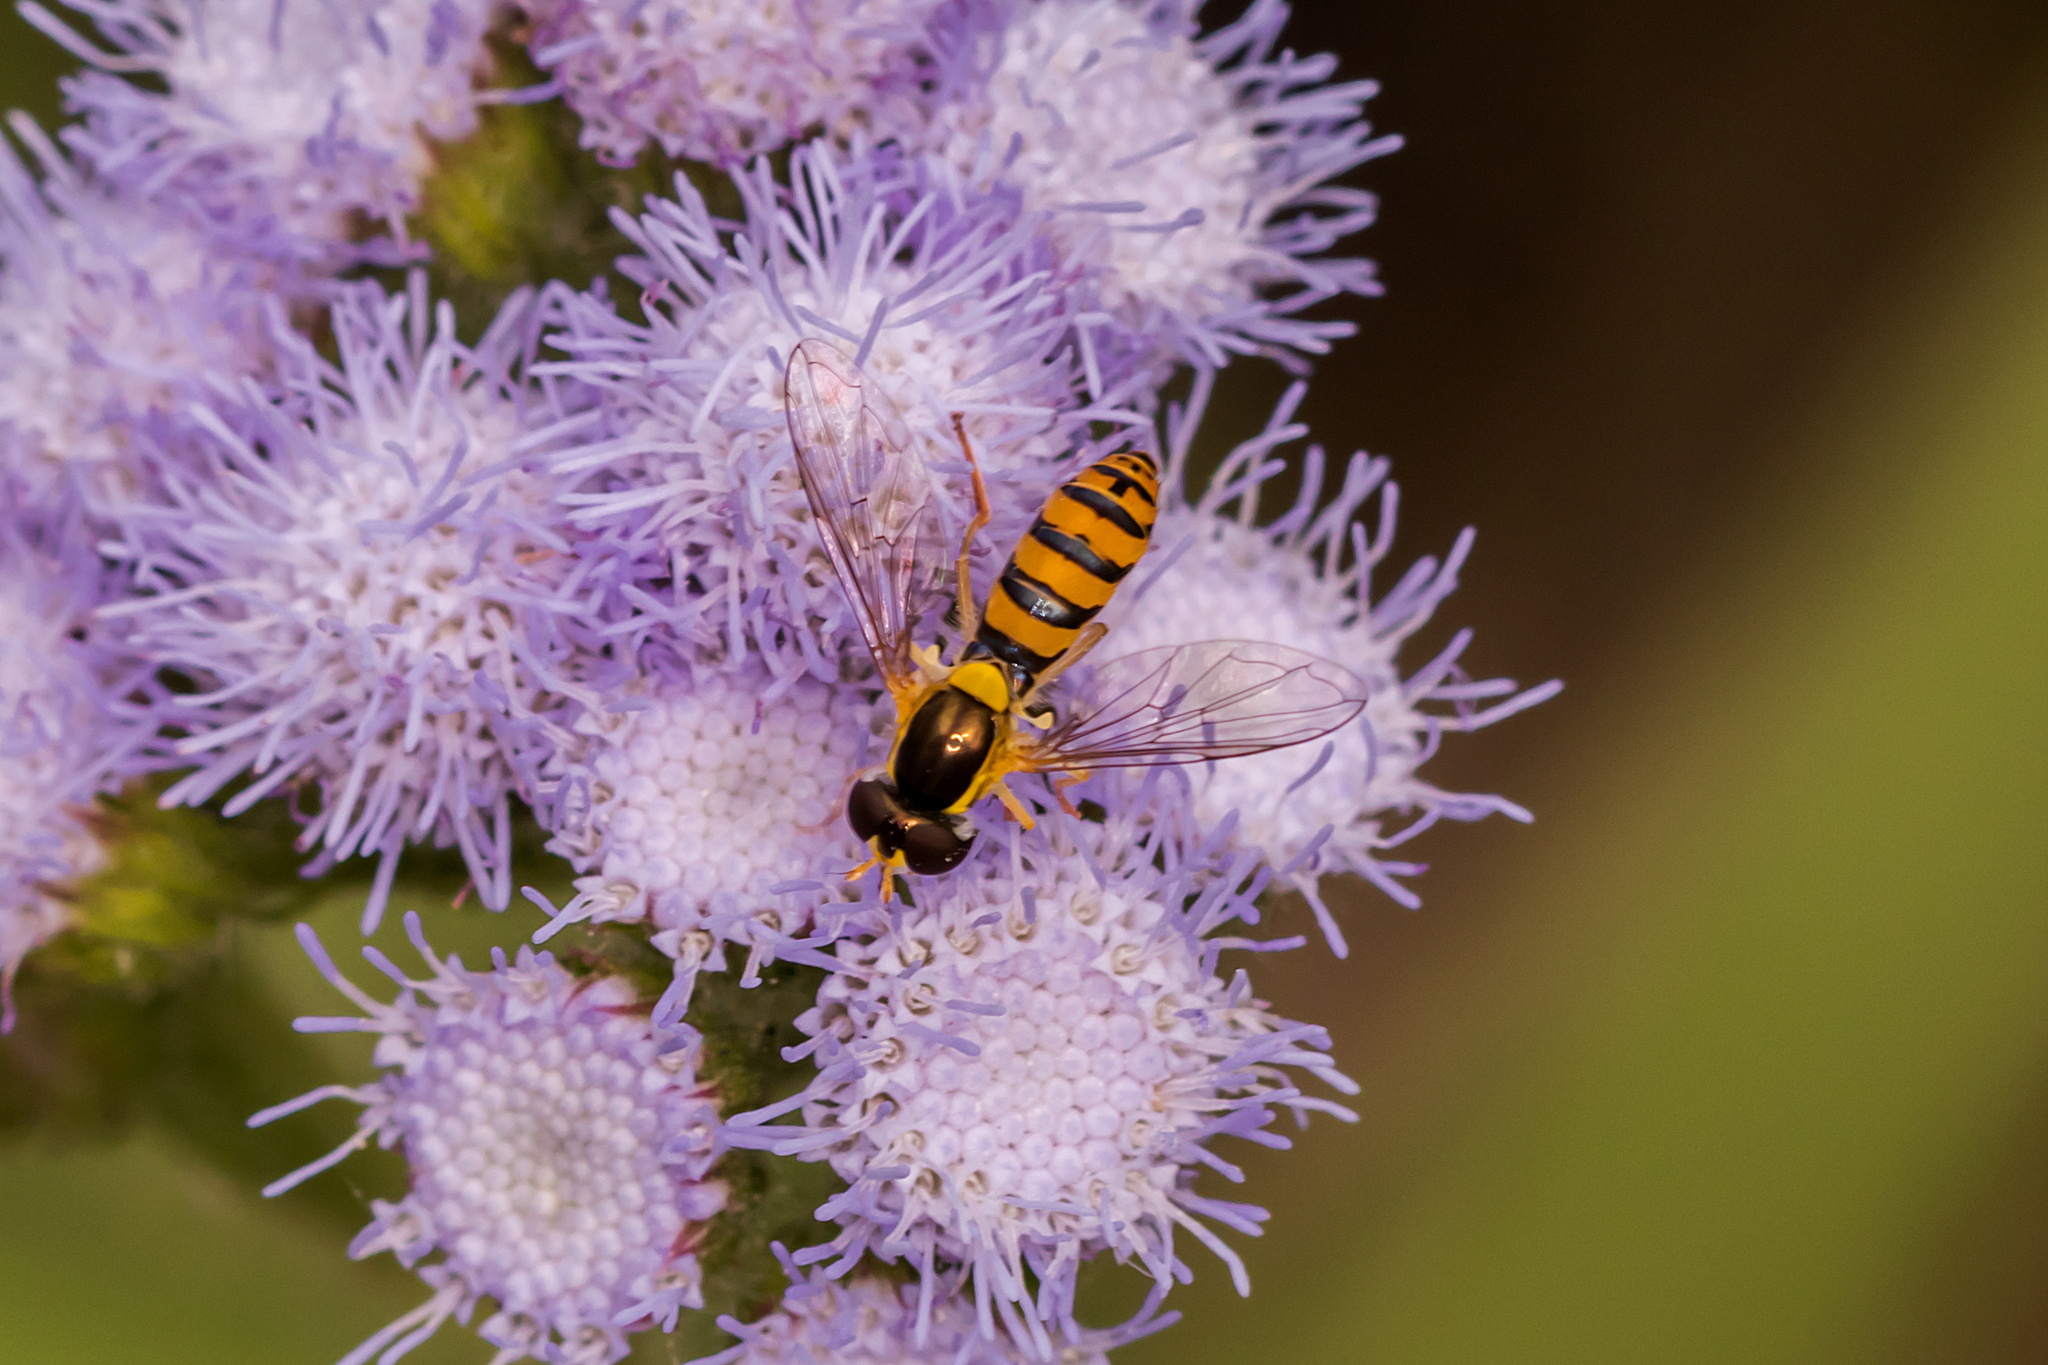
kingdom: Animalia
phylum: Arthropoda
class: Insecta
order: Diptera
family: Syrphidae
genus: Sphaerophoria
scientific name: Sphaerophoria macrogaster
